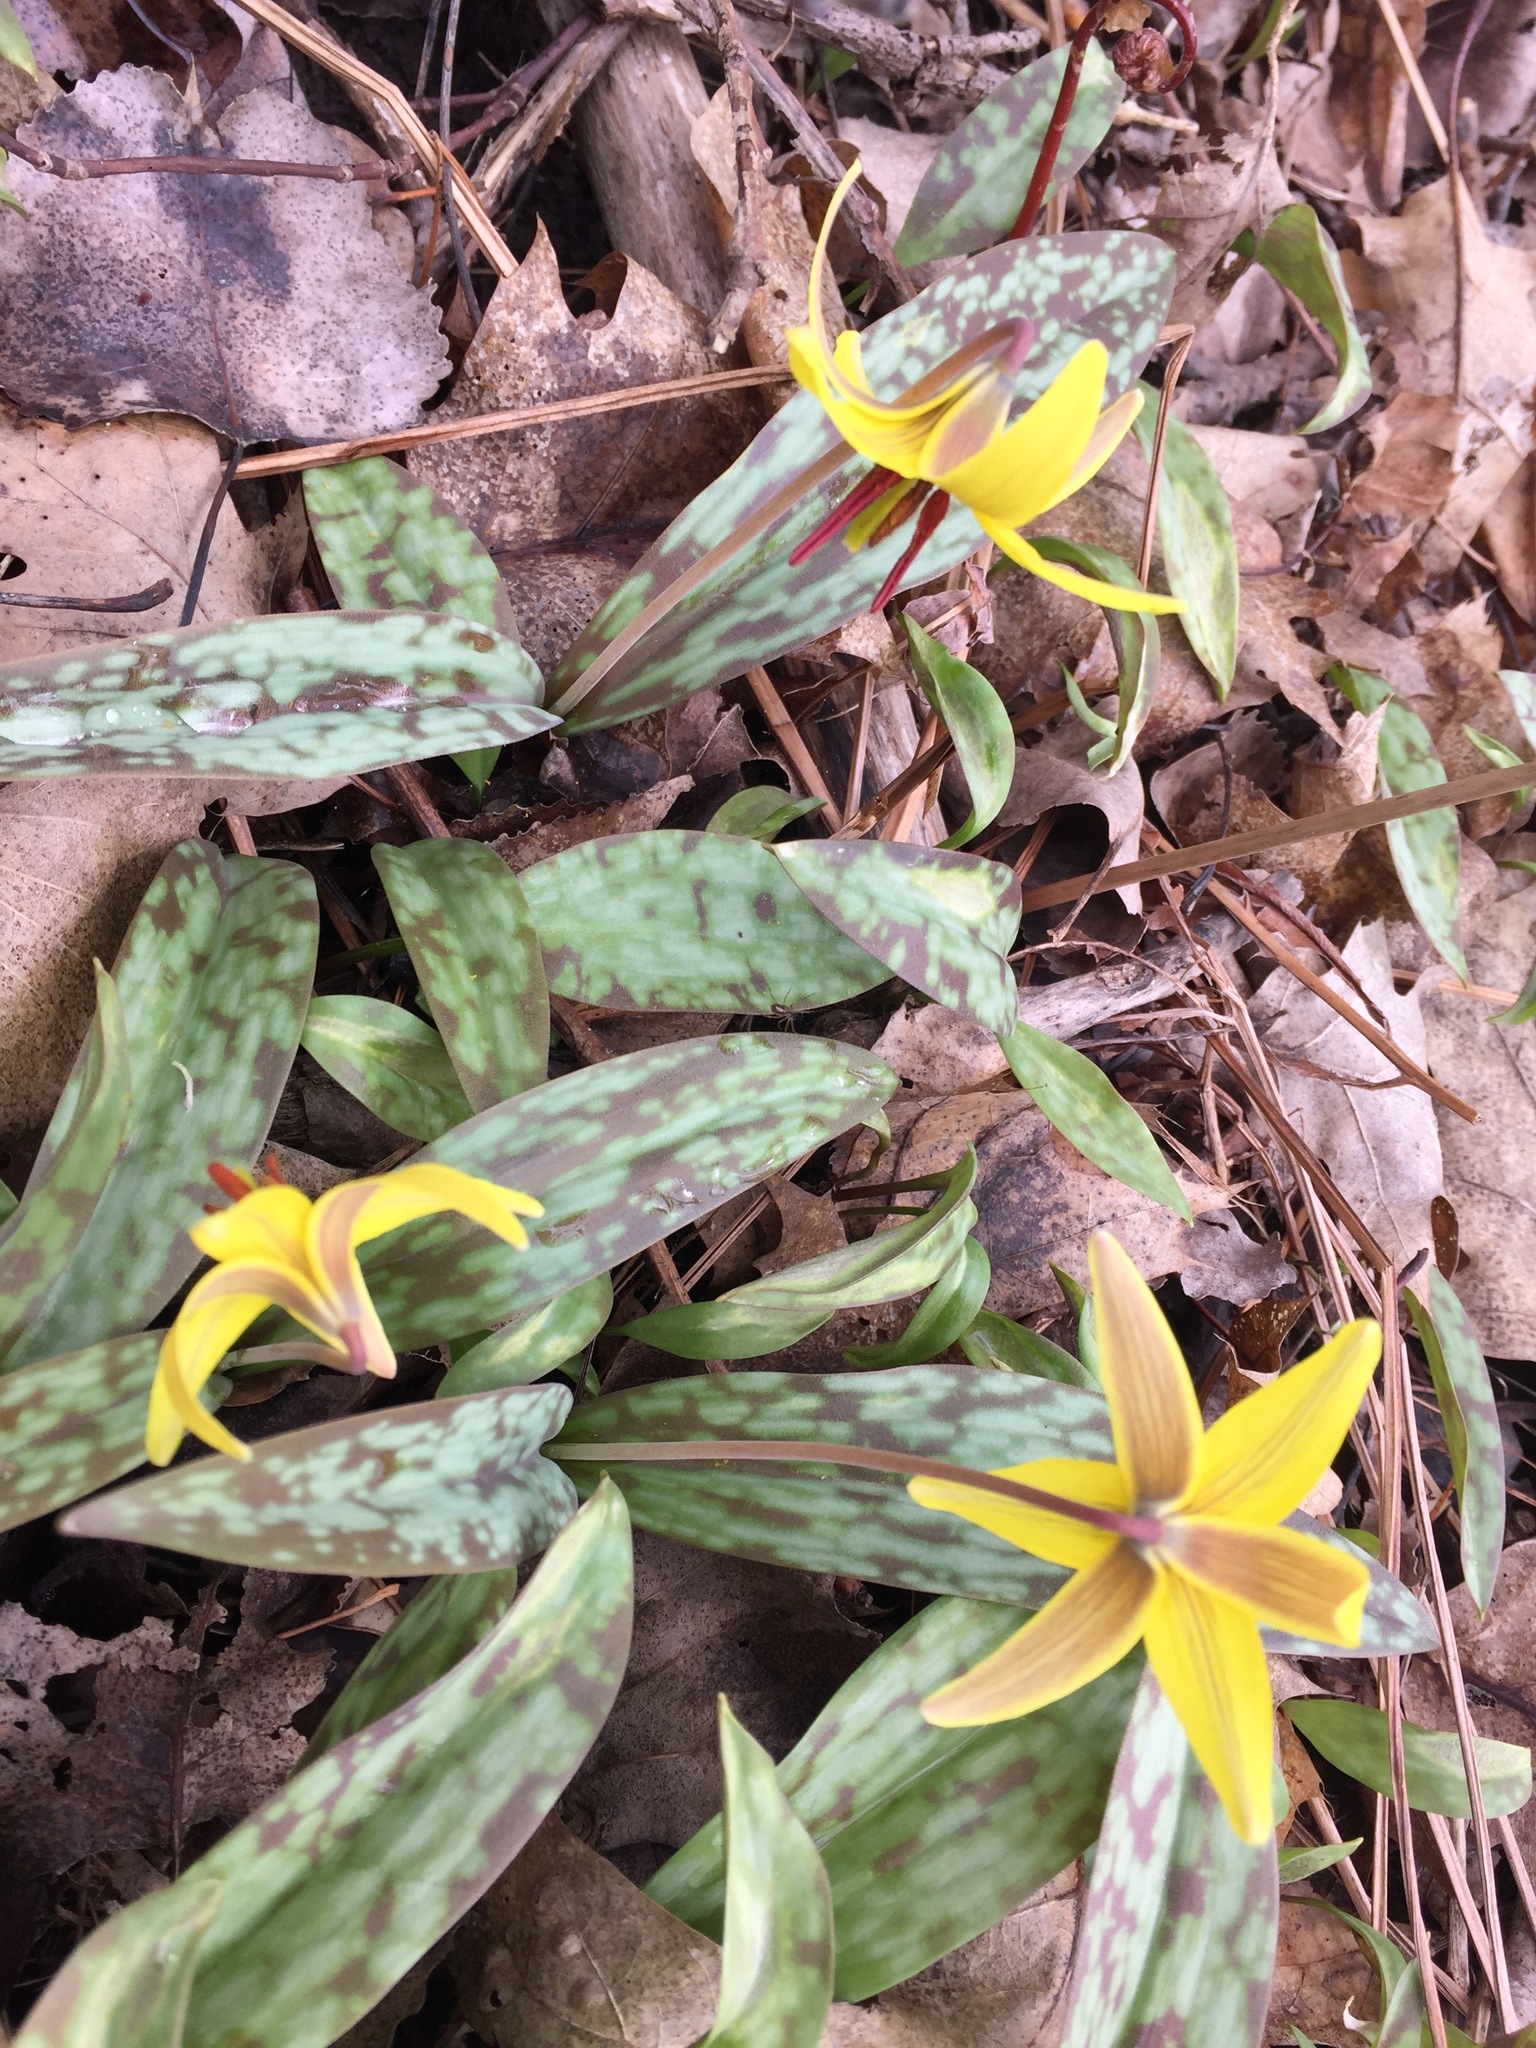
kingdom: Plantae
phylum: Tracheophyta
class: Liliopsida
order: Liliales
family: Liliaceae
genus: Erythronium
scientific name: Erythronium americanum
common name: Yellow adder's-tongue
